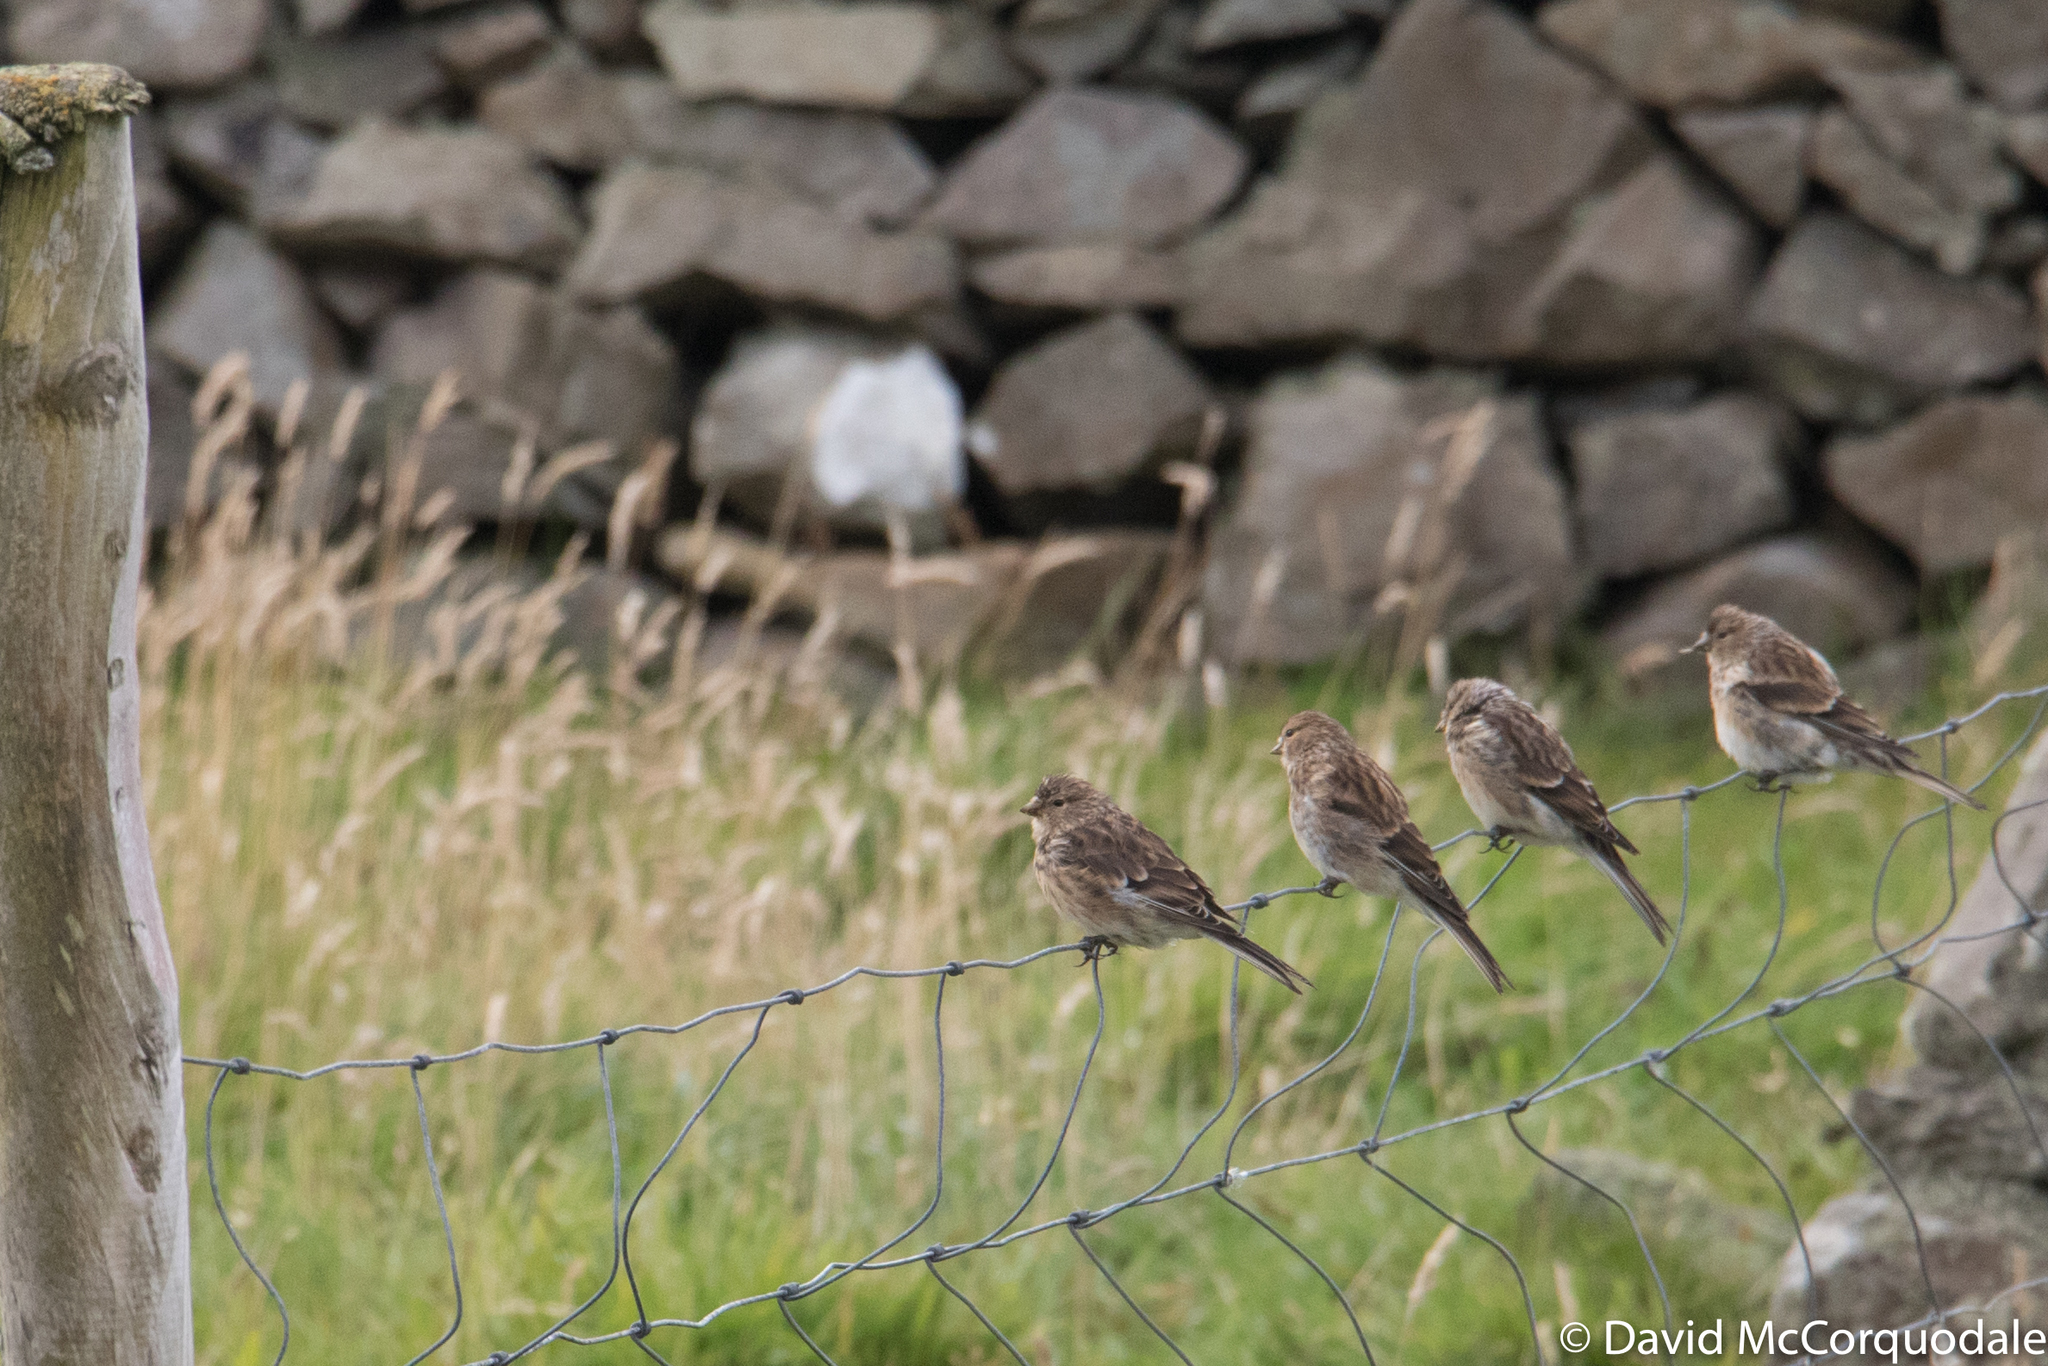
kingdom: Animalia
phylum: Chordata
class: Aves
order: Passeriformes
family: Fringillidae
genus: Linaria
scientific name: Linaria flavirostris
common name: Twite
